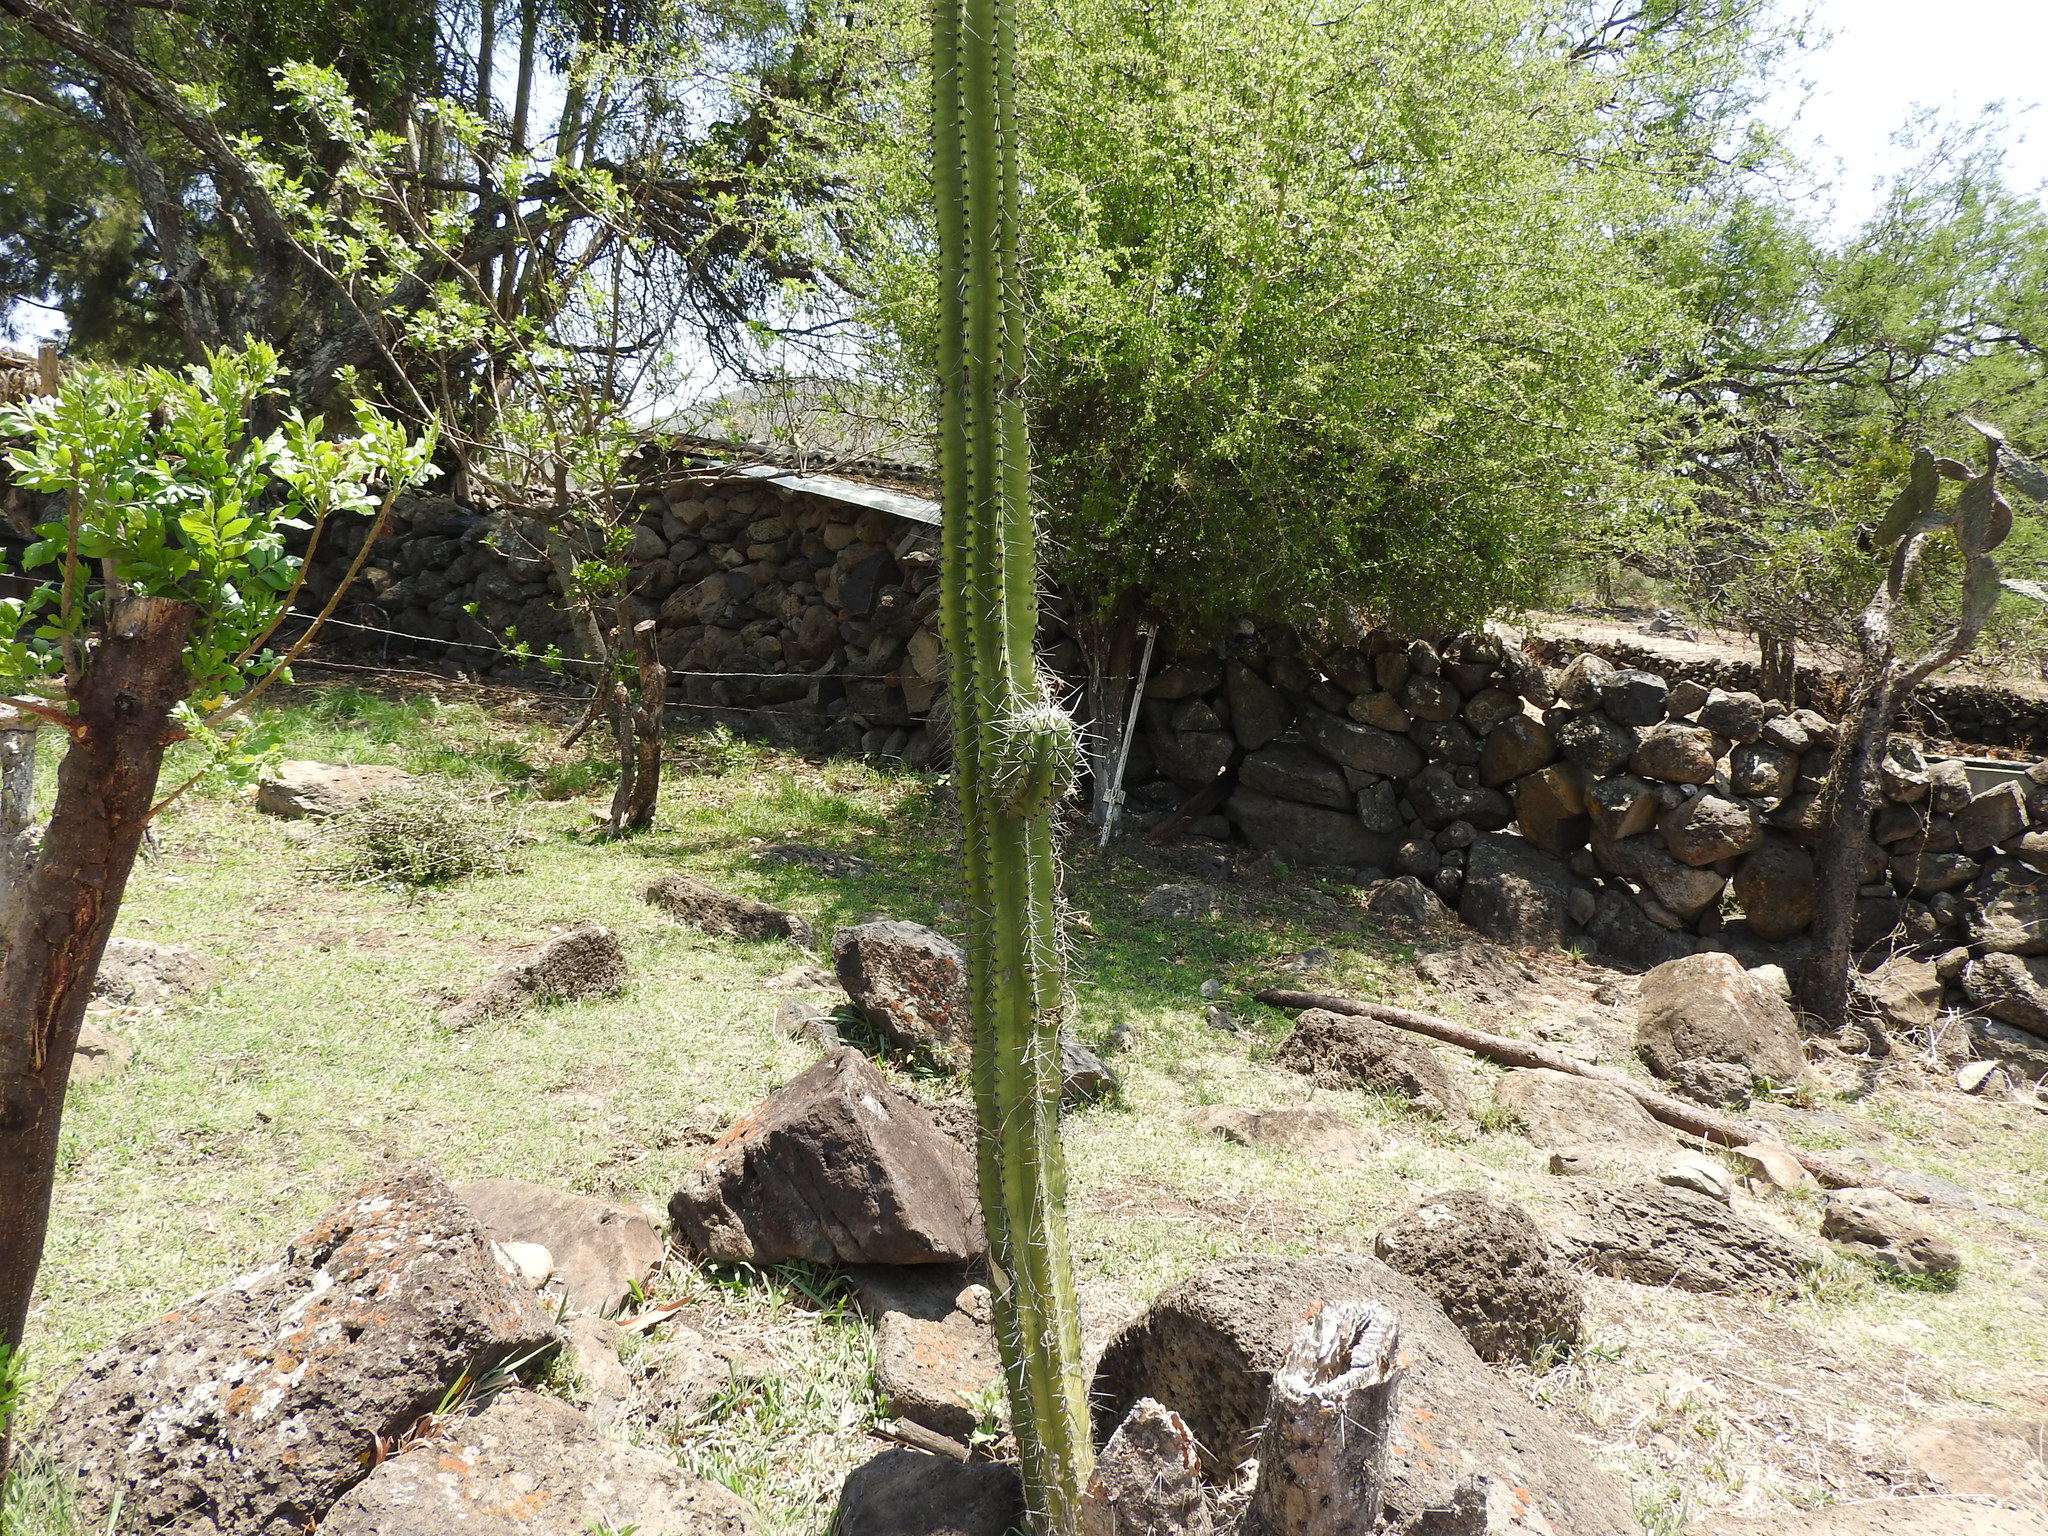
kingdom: Plantae
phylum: Tracheophyta
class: Magnoliopsida
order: Caryophyllales
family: Cactaceae
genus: Stenocereus
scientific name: Stenocereus queretaroensis
